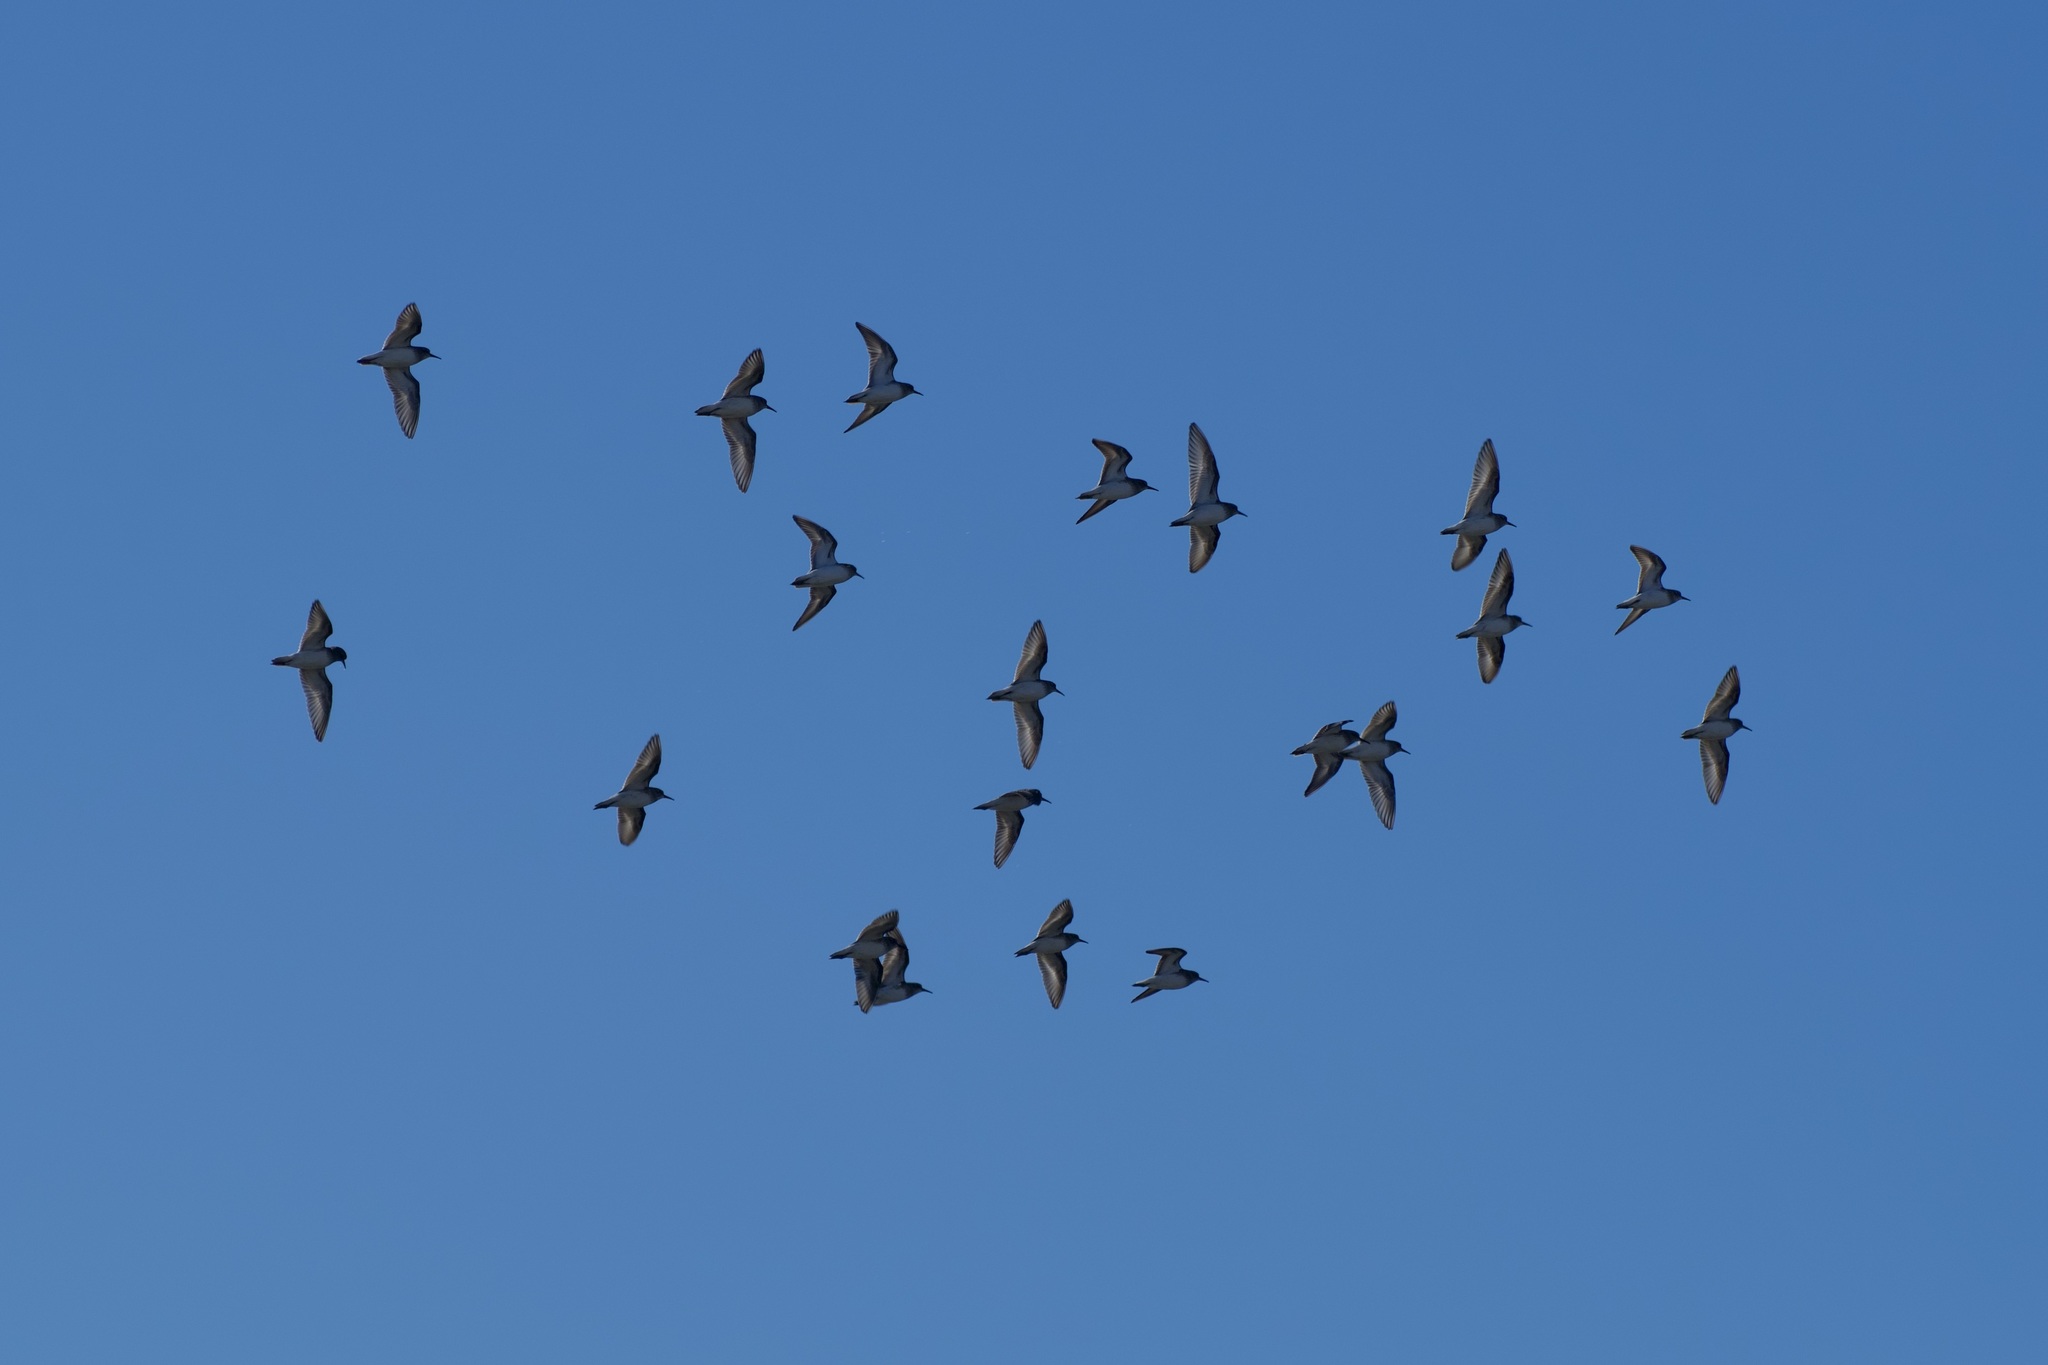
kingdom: Animalia
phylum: Chordata
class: Aves
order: Charadriiformes
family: Scolopacidae
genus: Calidris
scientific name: Calidris minutilla
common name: Least sandpiper
